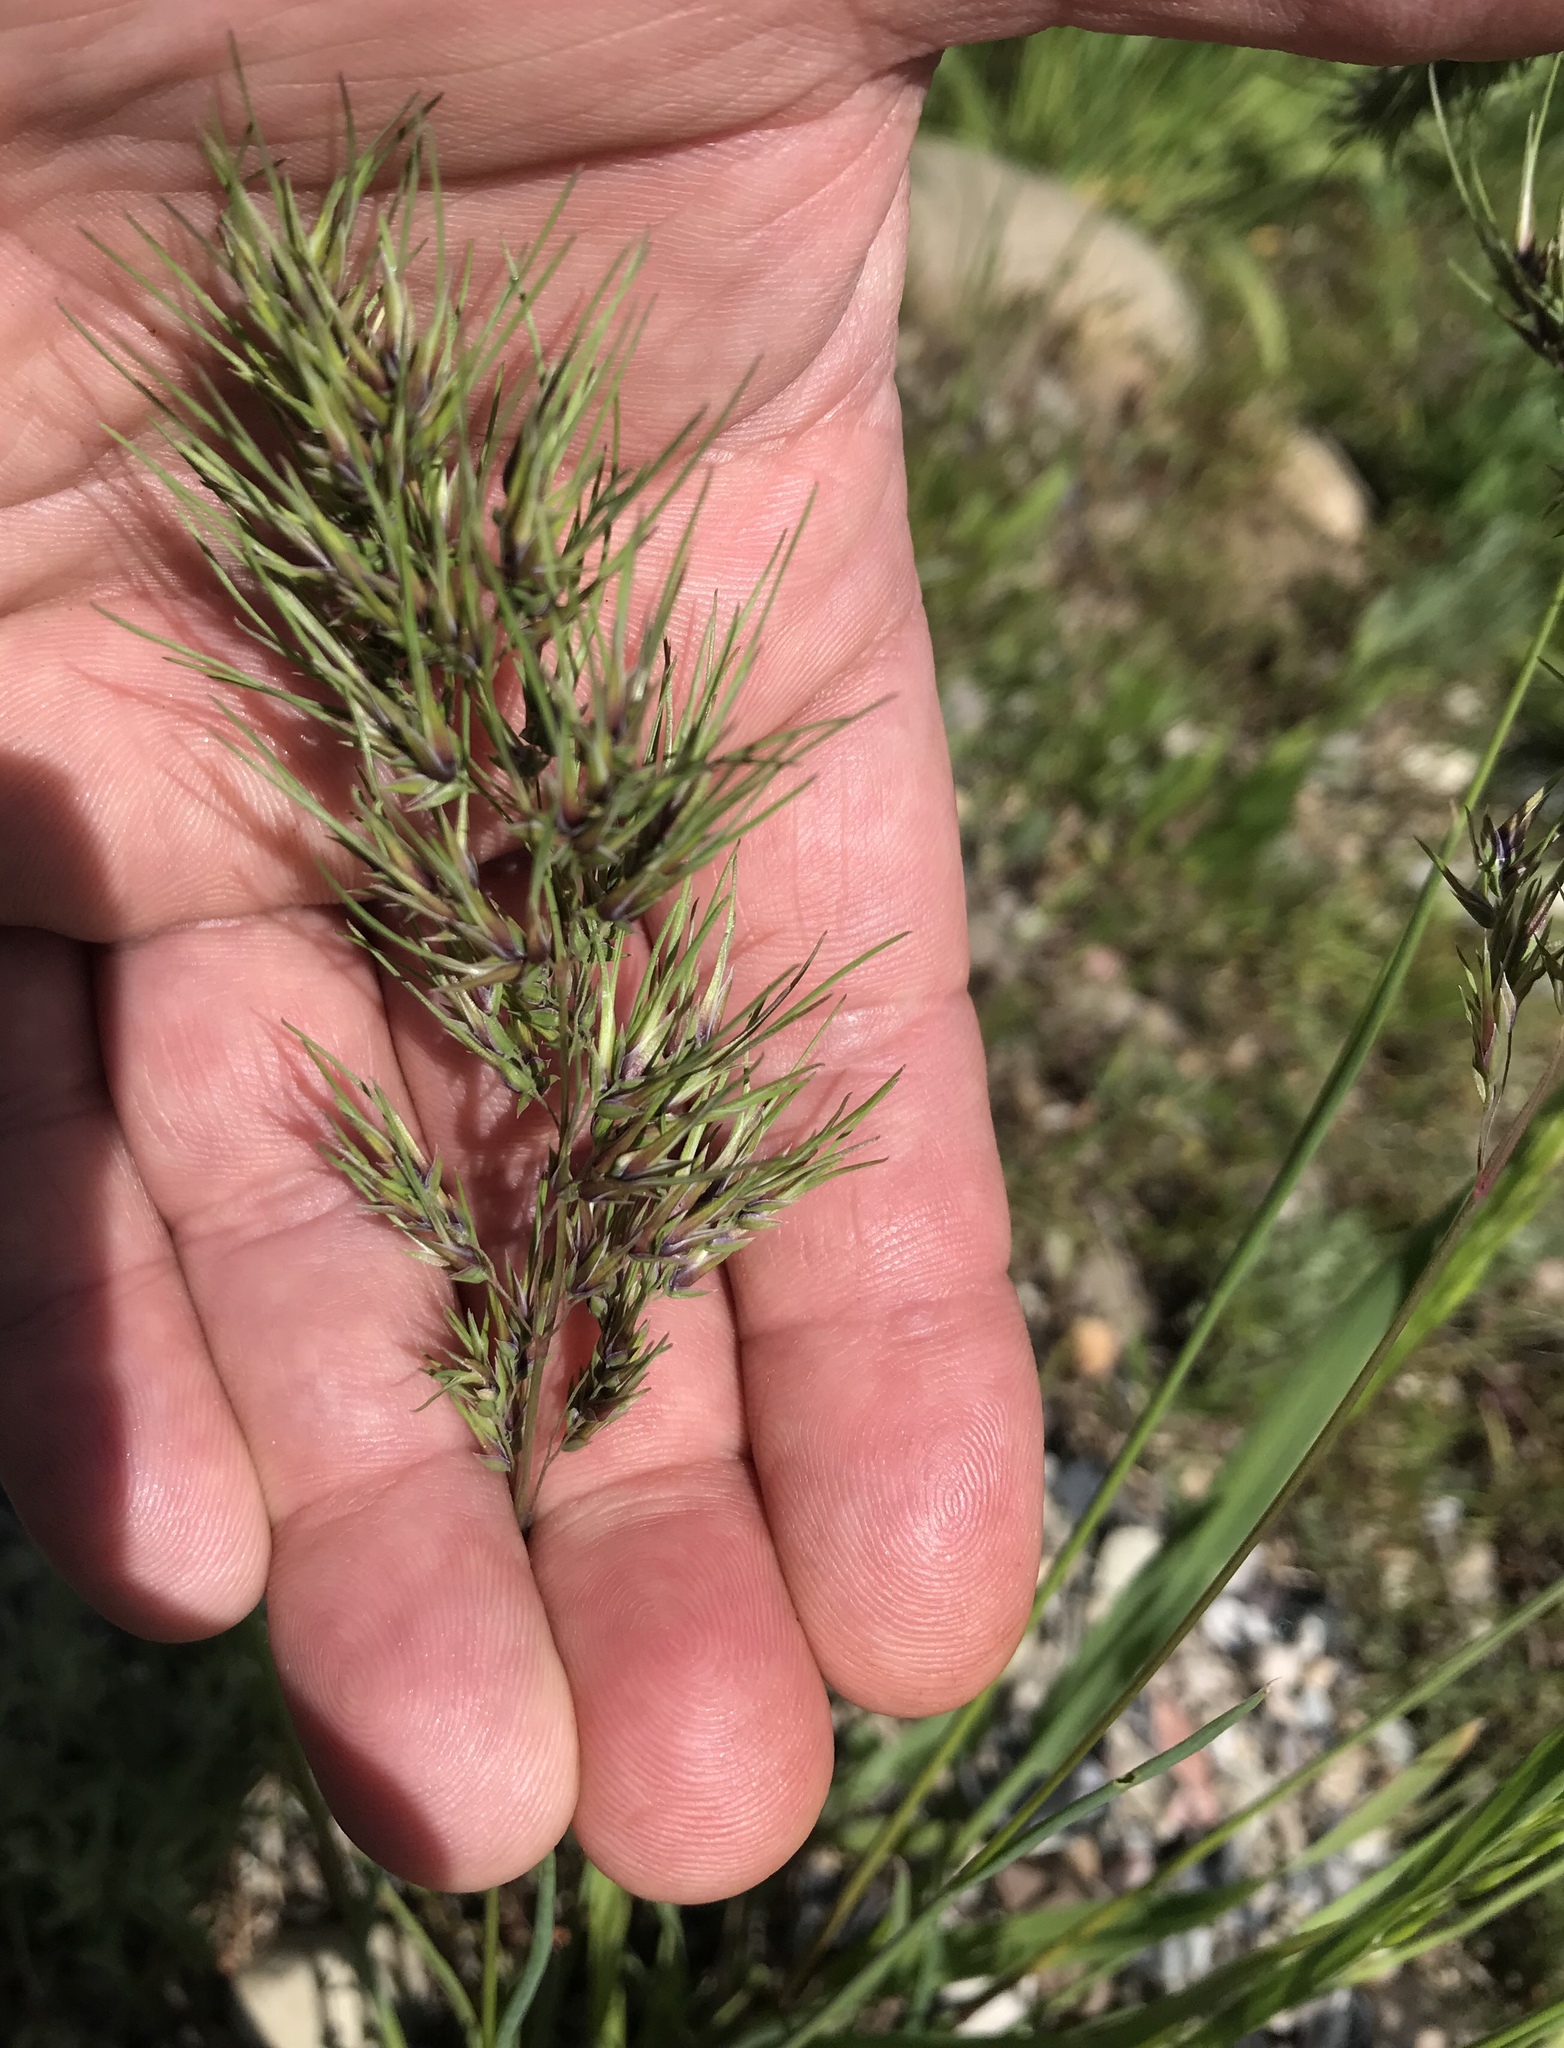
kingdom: Plantae
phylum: Tracheophyta
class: Liliopsida
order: Poales
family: Poaceae
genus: Poa
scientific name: Poa bulbosa
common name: Bulbous bluegrass
